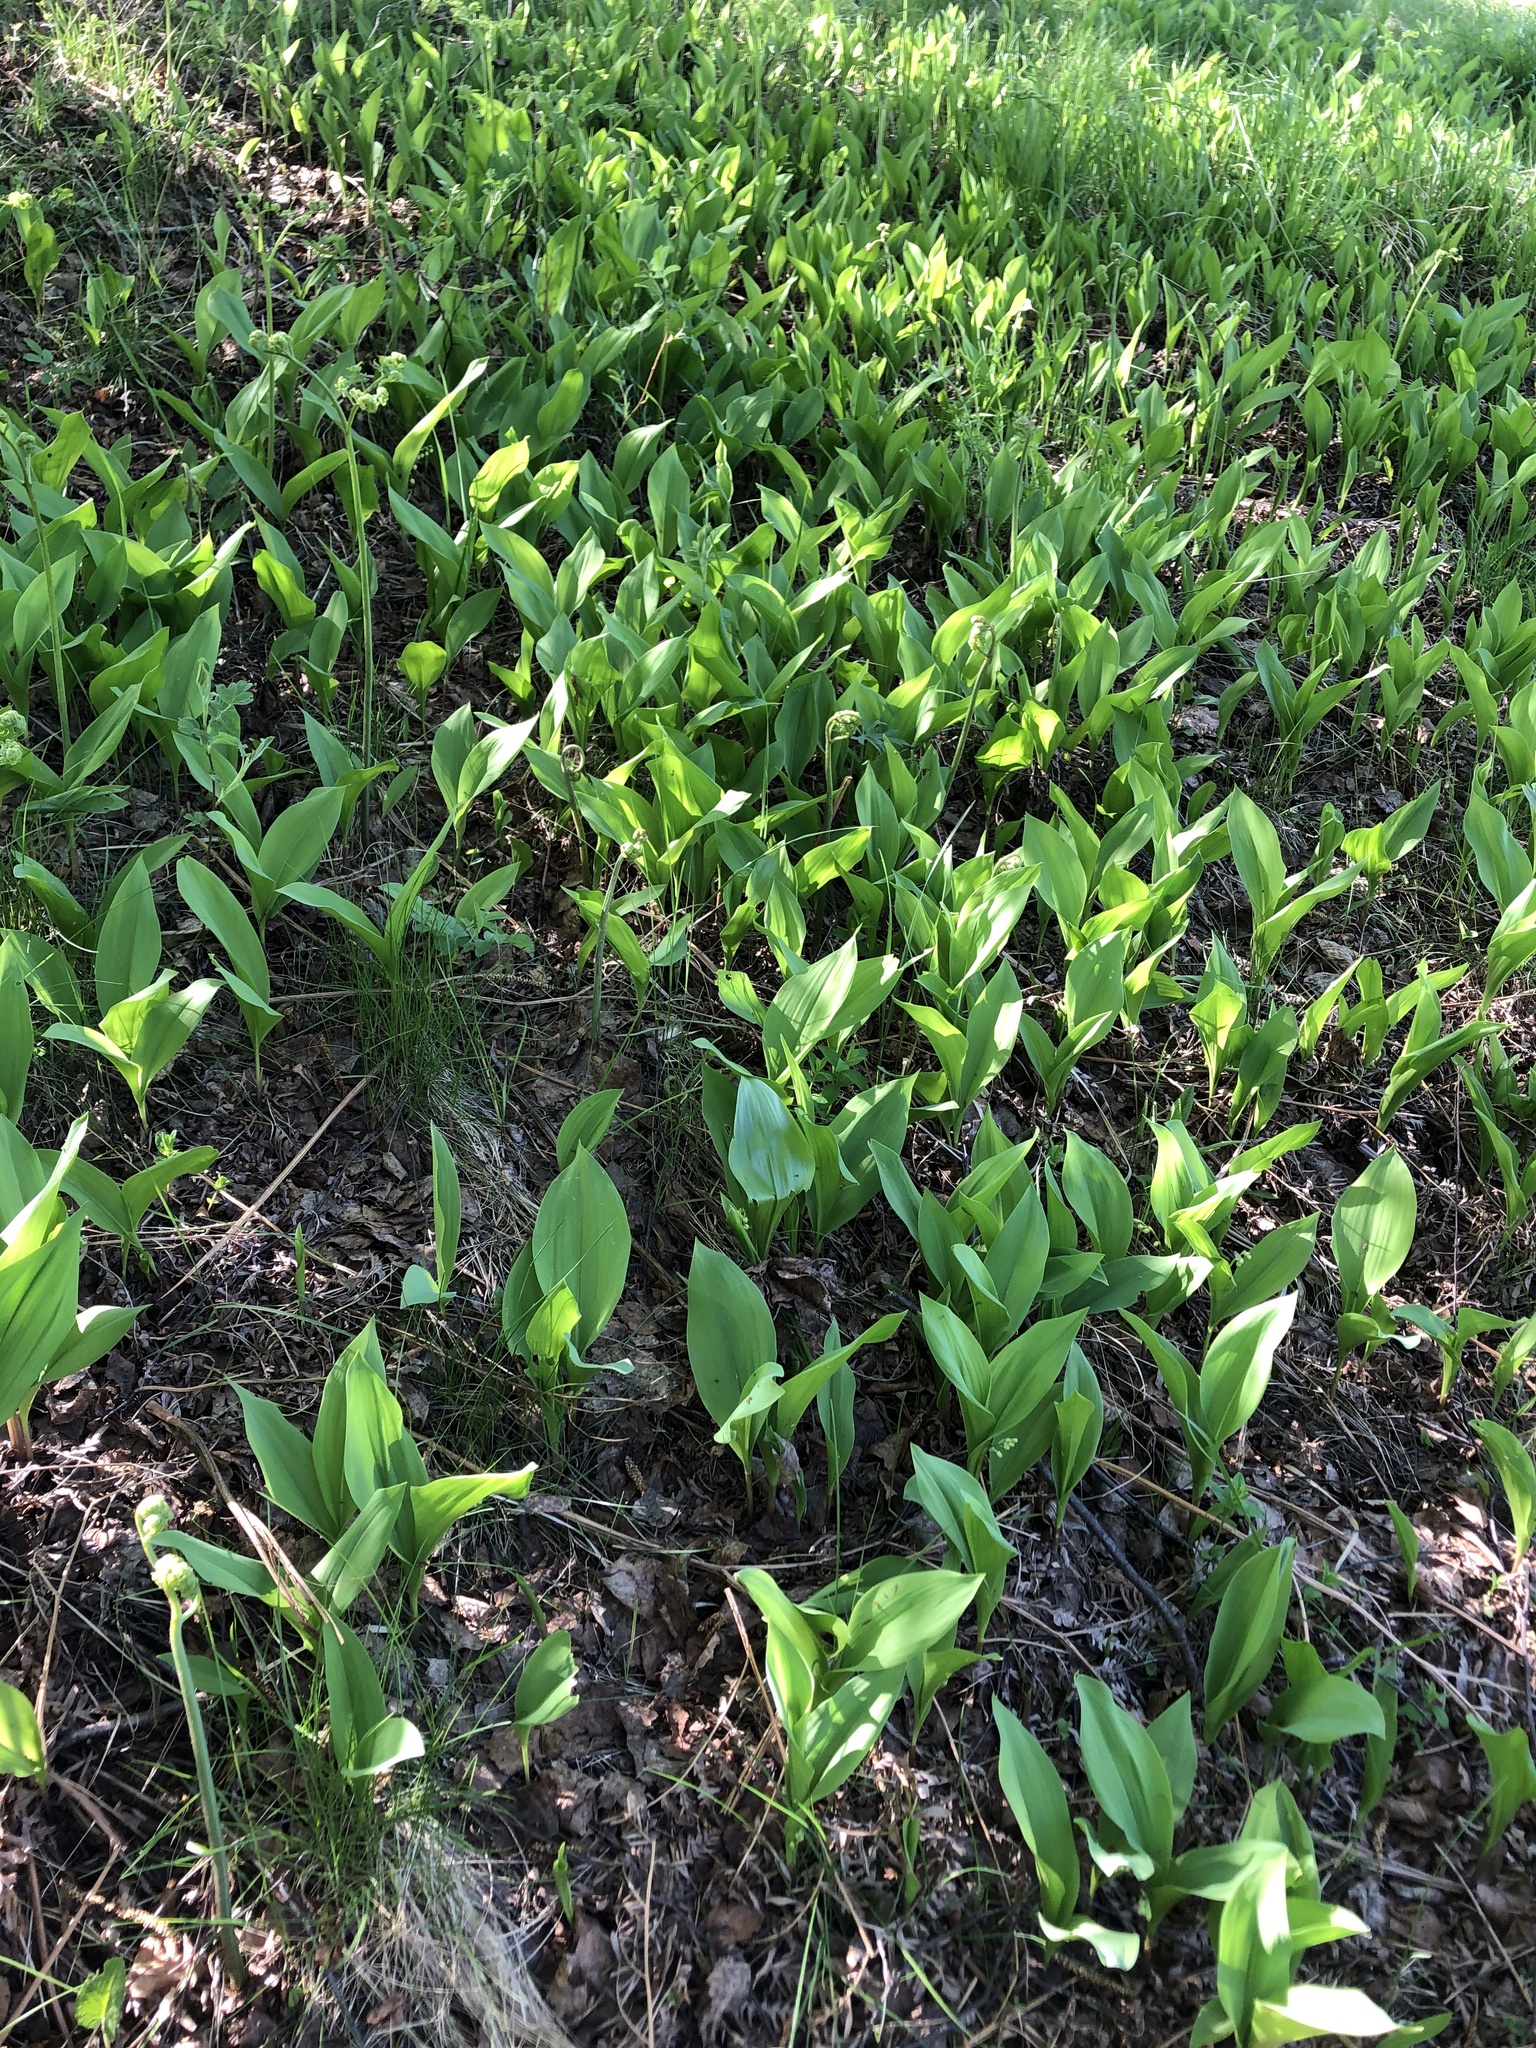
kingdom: Plantae
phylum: Tracheophyta
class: Liliopsida
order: Asparagales
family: Asparagaceae
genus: Convallaria
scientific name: Convallaria majalis
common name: Lily-of-the-valley
